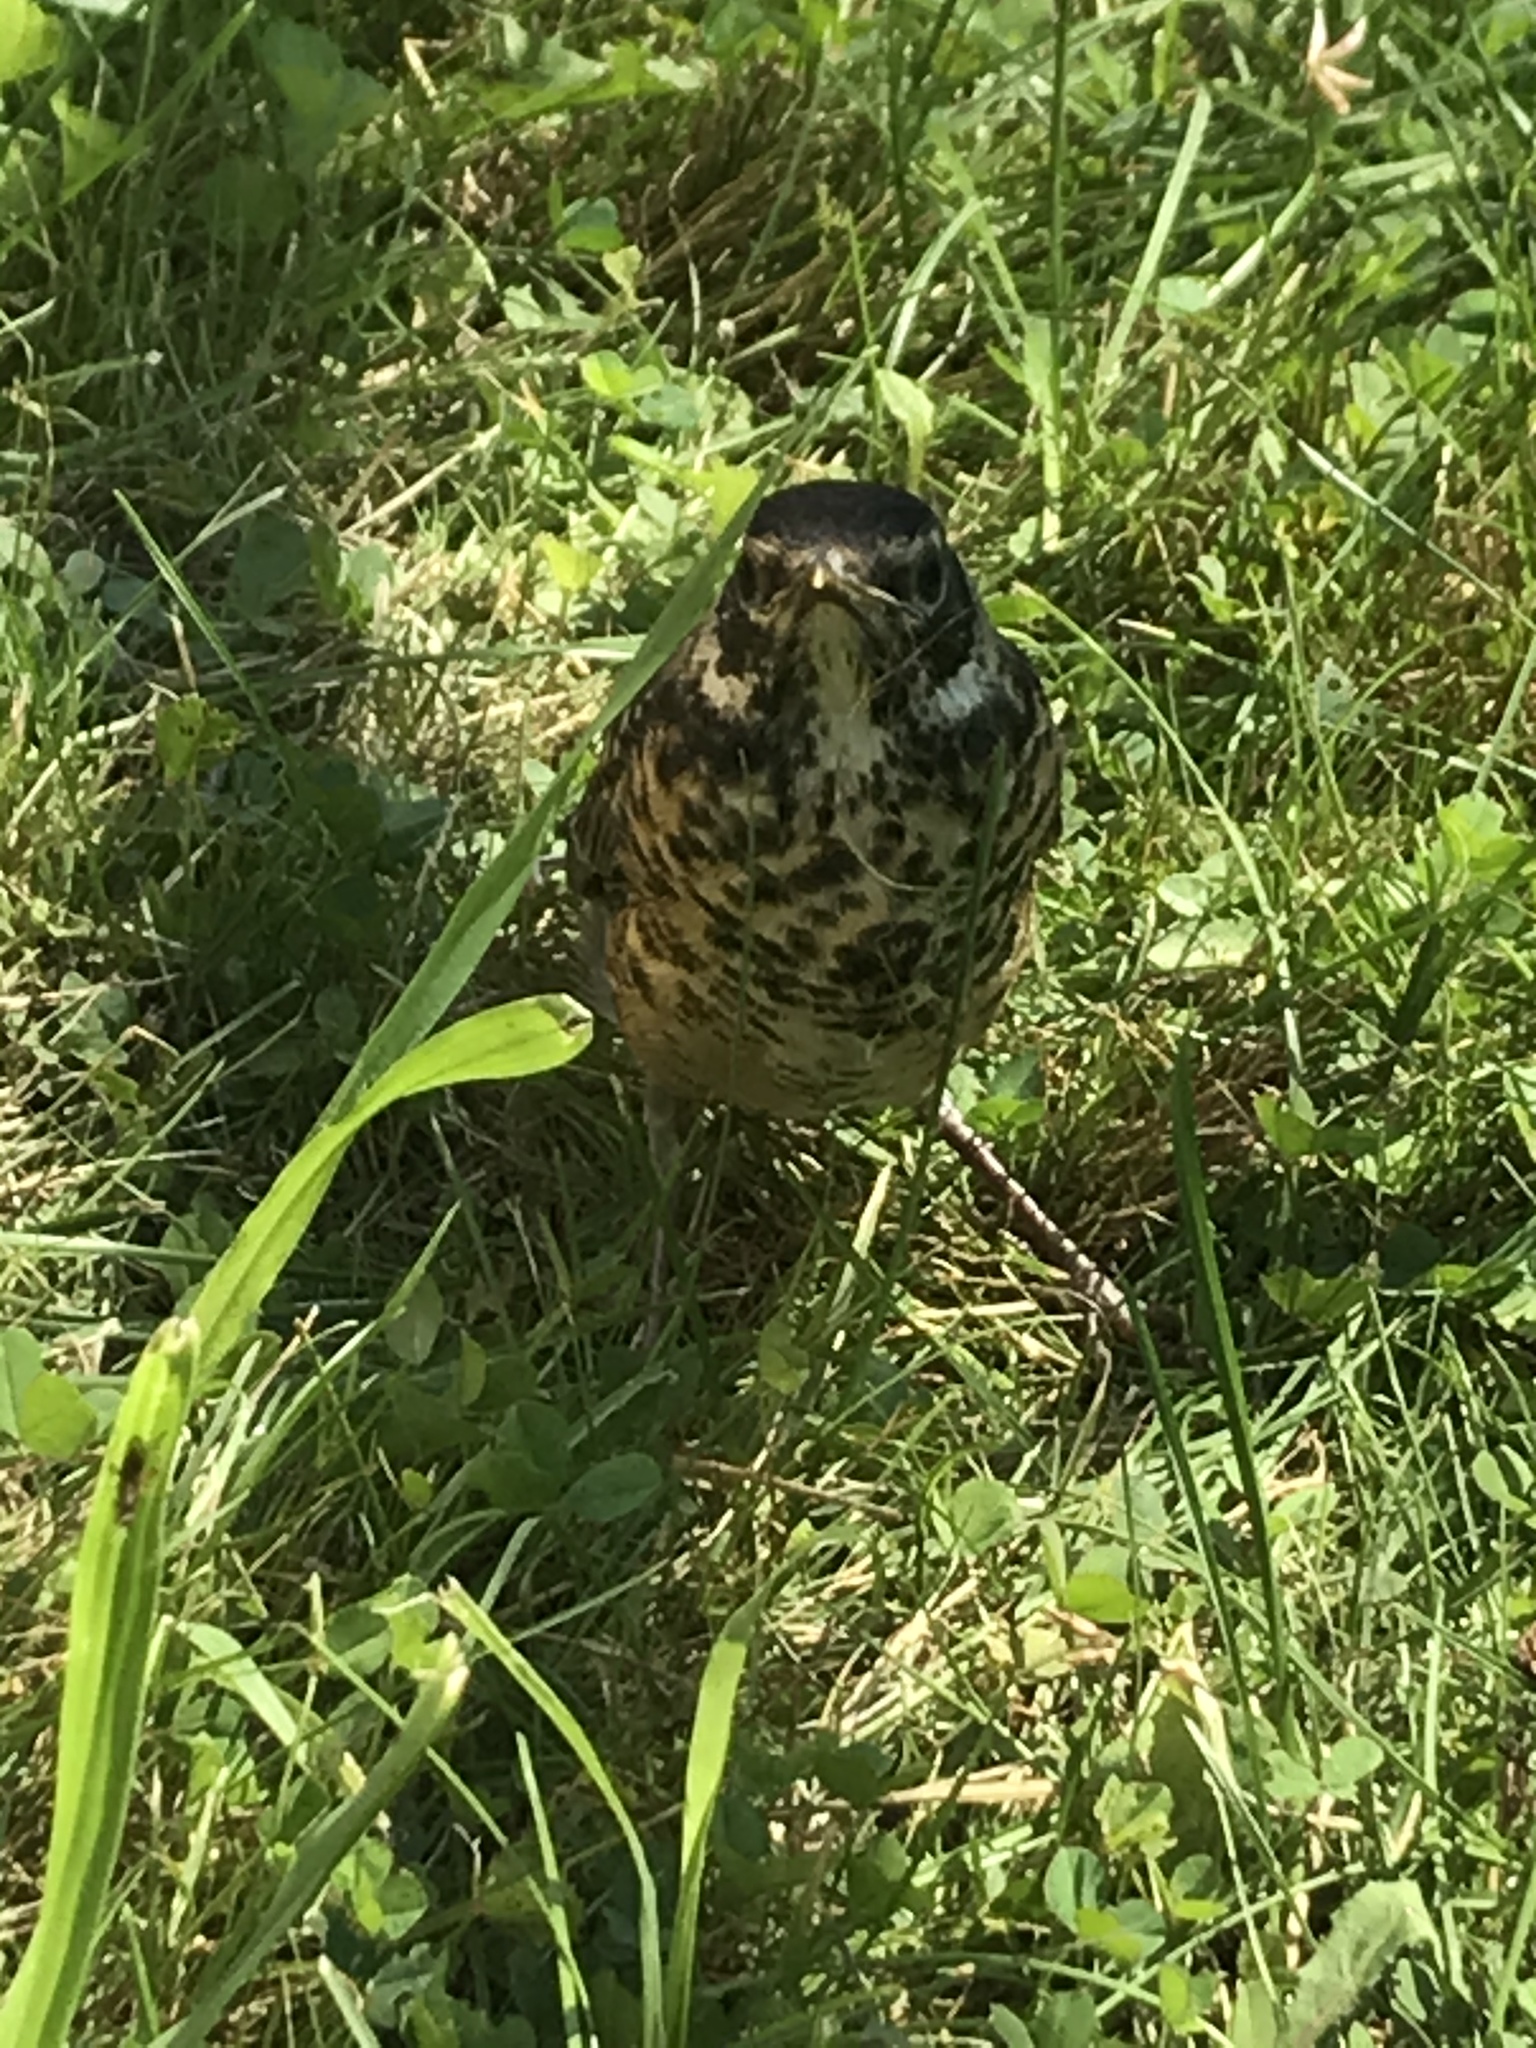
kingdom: Animalia
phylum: Chordata
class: Aves
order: Passeriformes
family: Turdidae
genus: Turdus
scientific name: Turdus migratorius
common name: American robin
